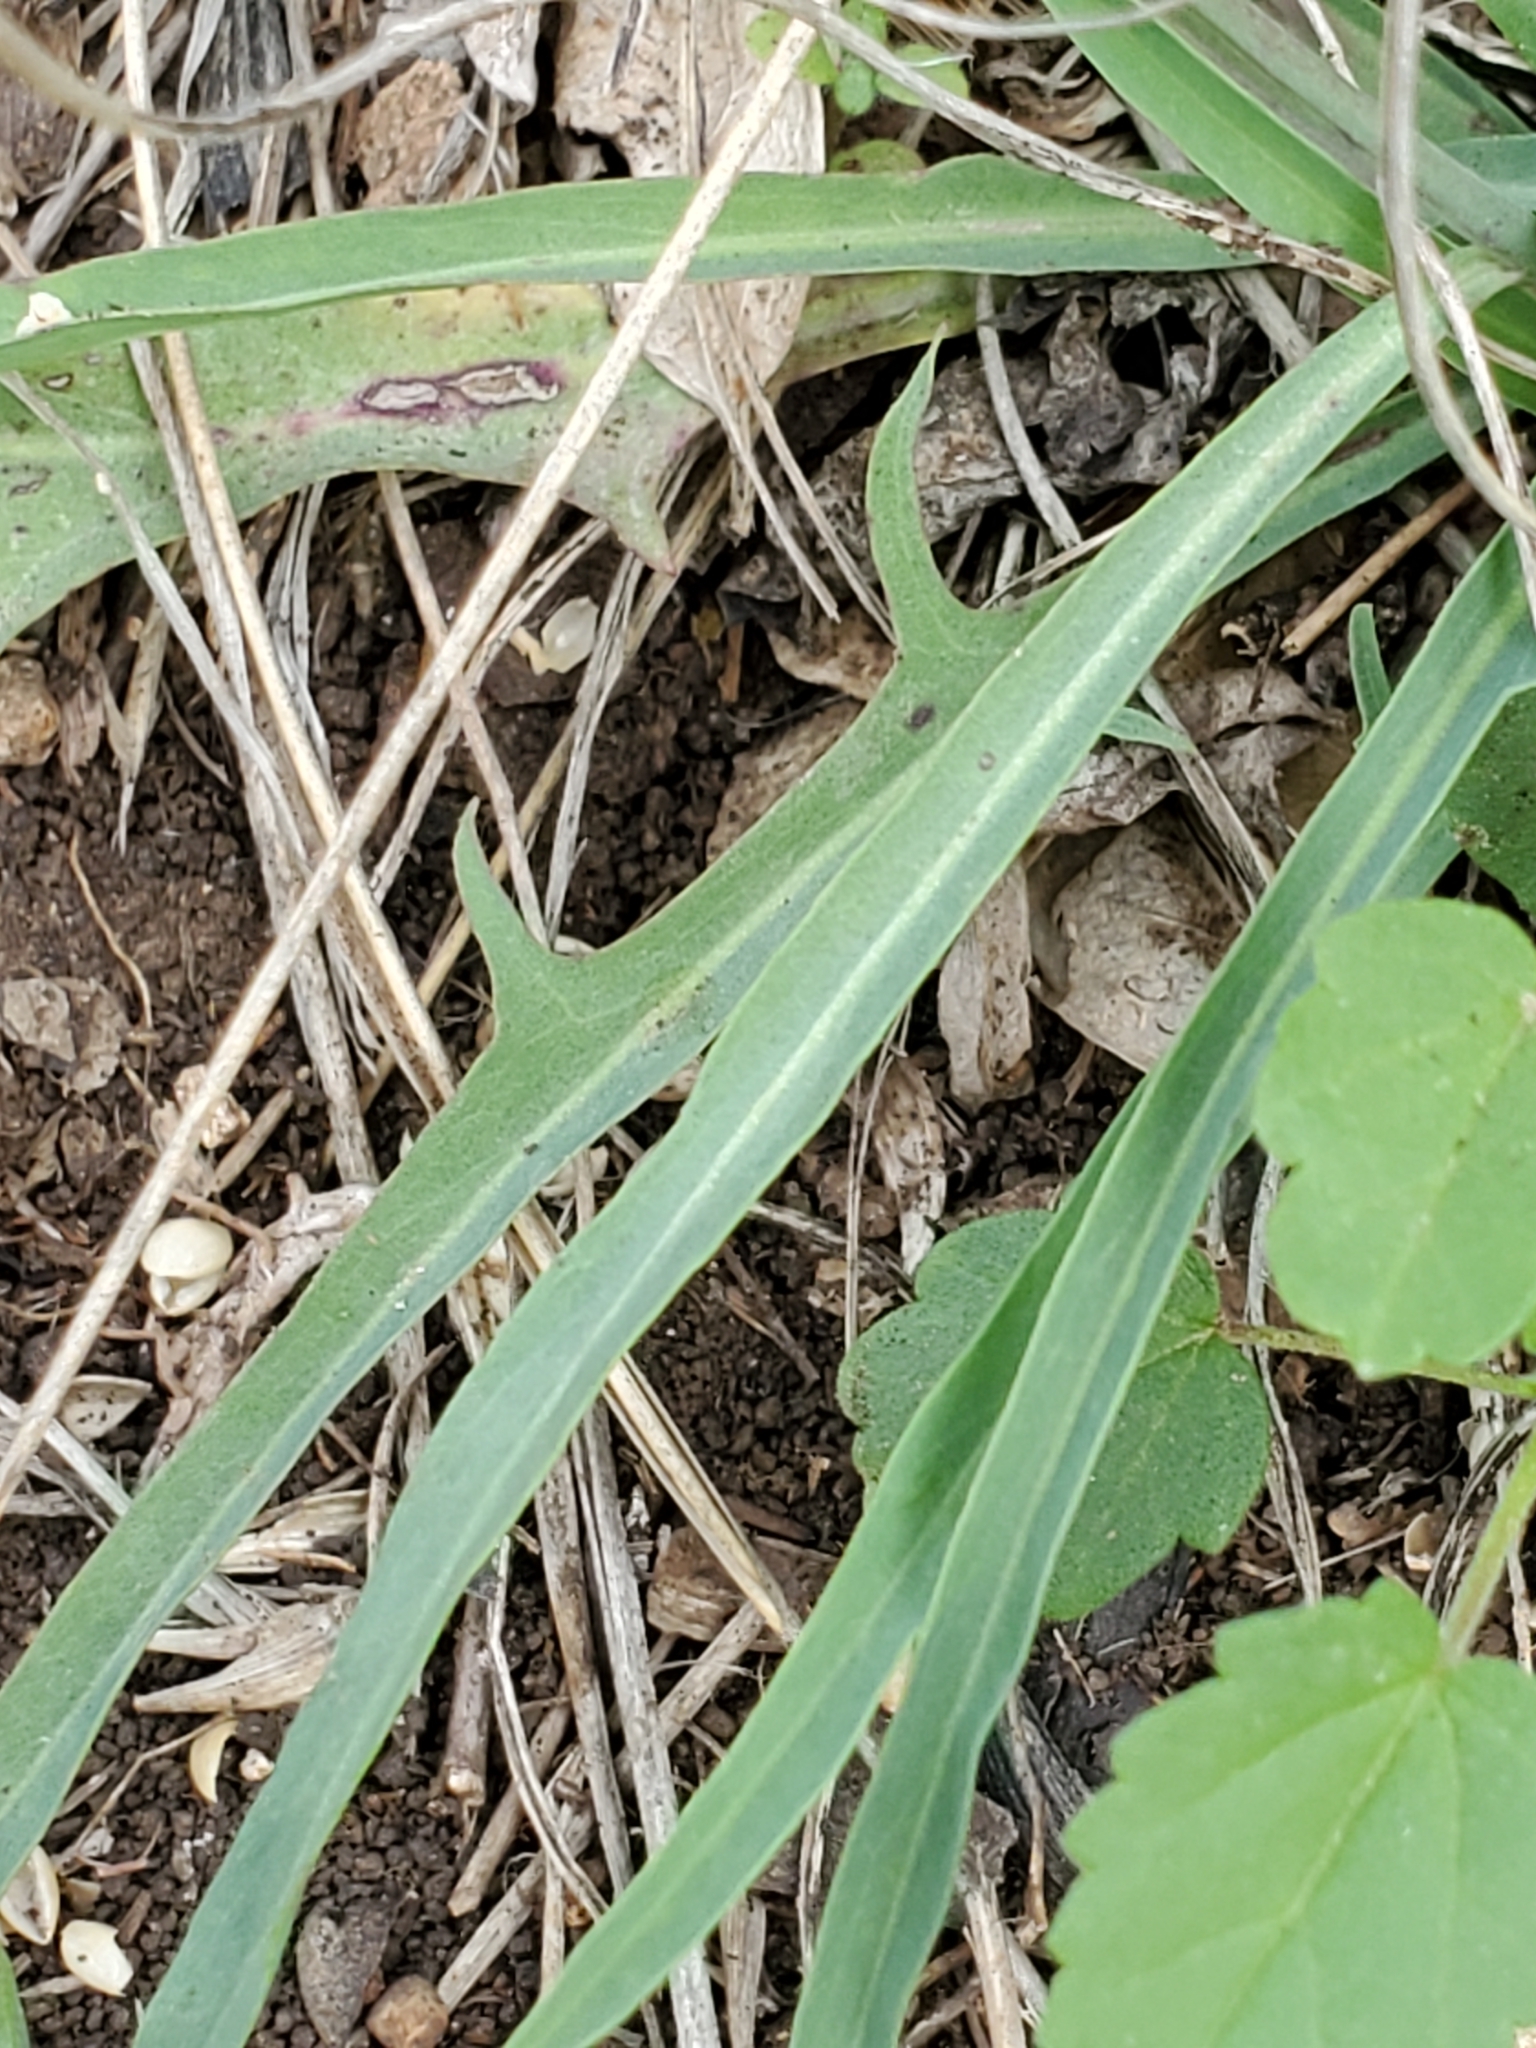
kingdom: Plantae
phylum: Tracheophyta
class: Magnoliopsida
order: Asterales
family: Asteraceae
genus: Pinaropappus
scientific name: Pinaropappus roseus
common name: Rock-lettuce
